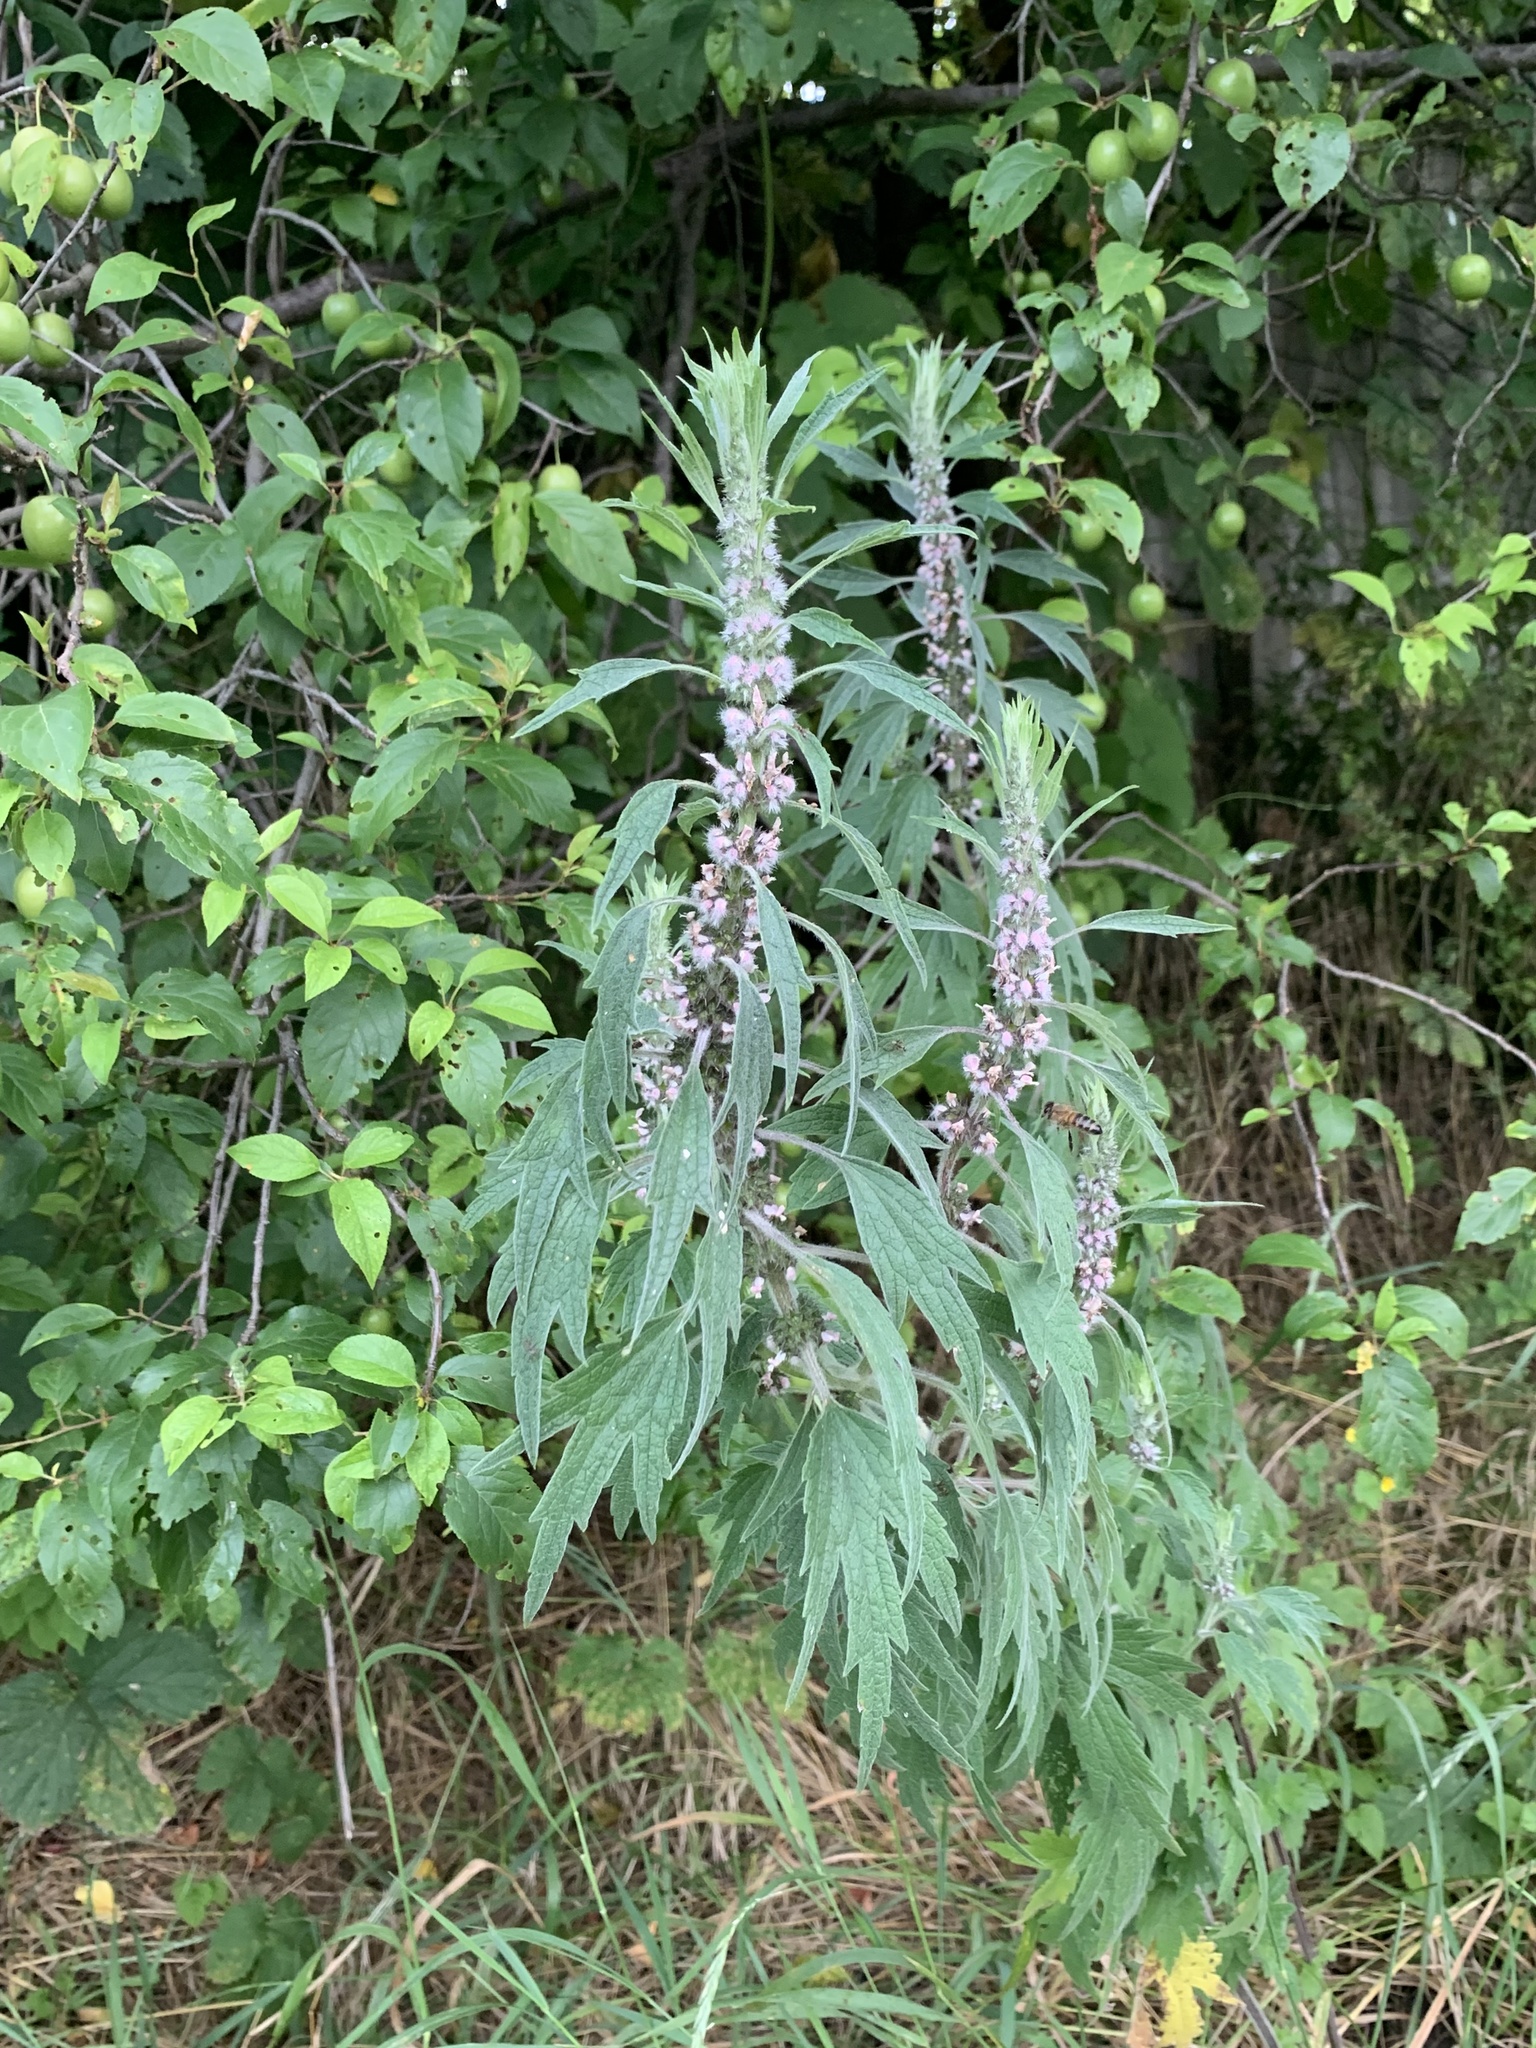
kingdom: Plantae
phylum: Tracheophyta
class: Magnoliopsida
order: Lamiales
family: Lamiaceae
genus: Leonurus
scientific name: Leonurus quinquelobatus
